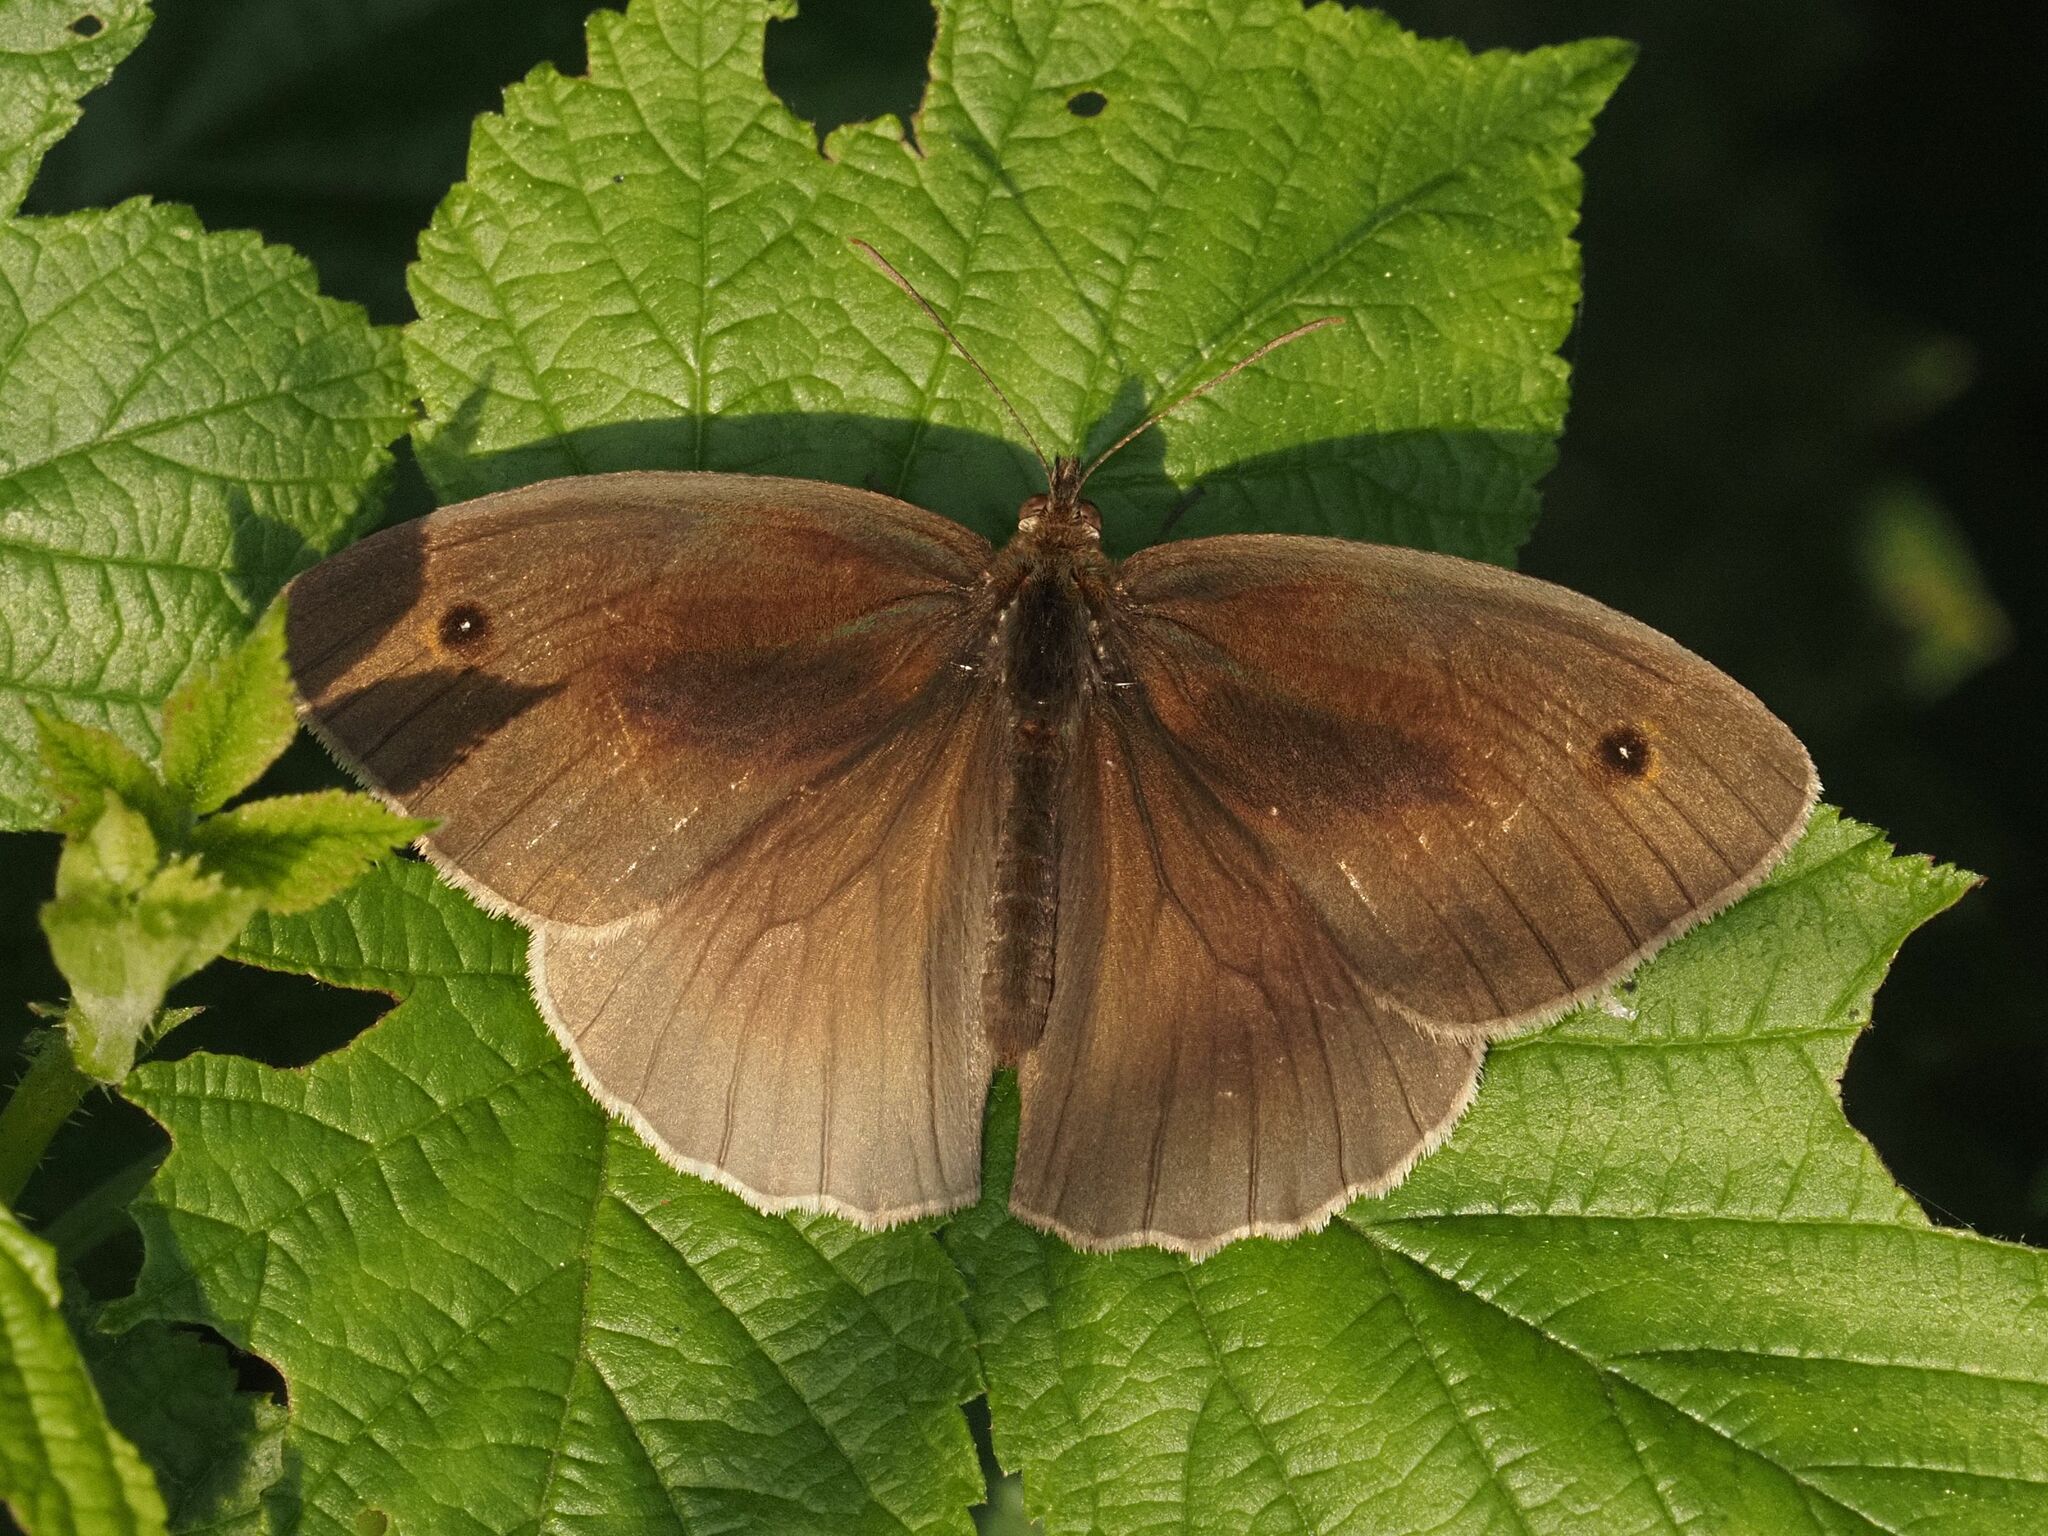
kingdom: Animalia
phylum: Arthropoda
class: Insecta
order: Lepidoptera
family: Nymphalidae
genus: Maniola
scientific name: Maniola jurtina
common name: Meadow brown
